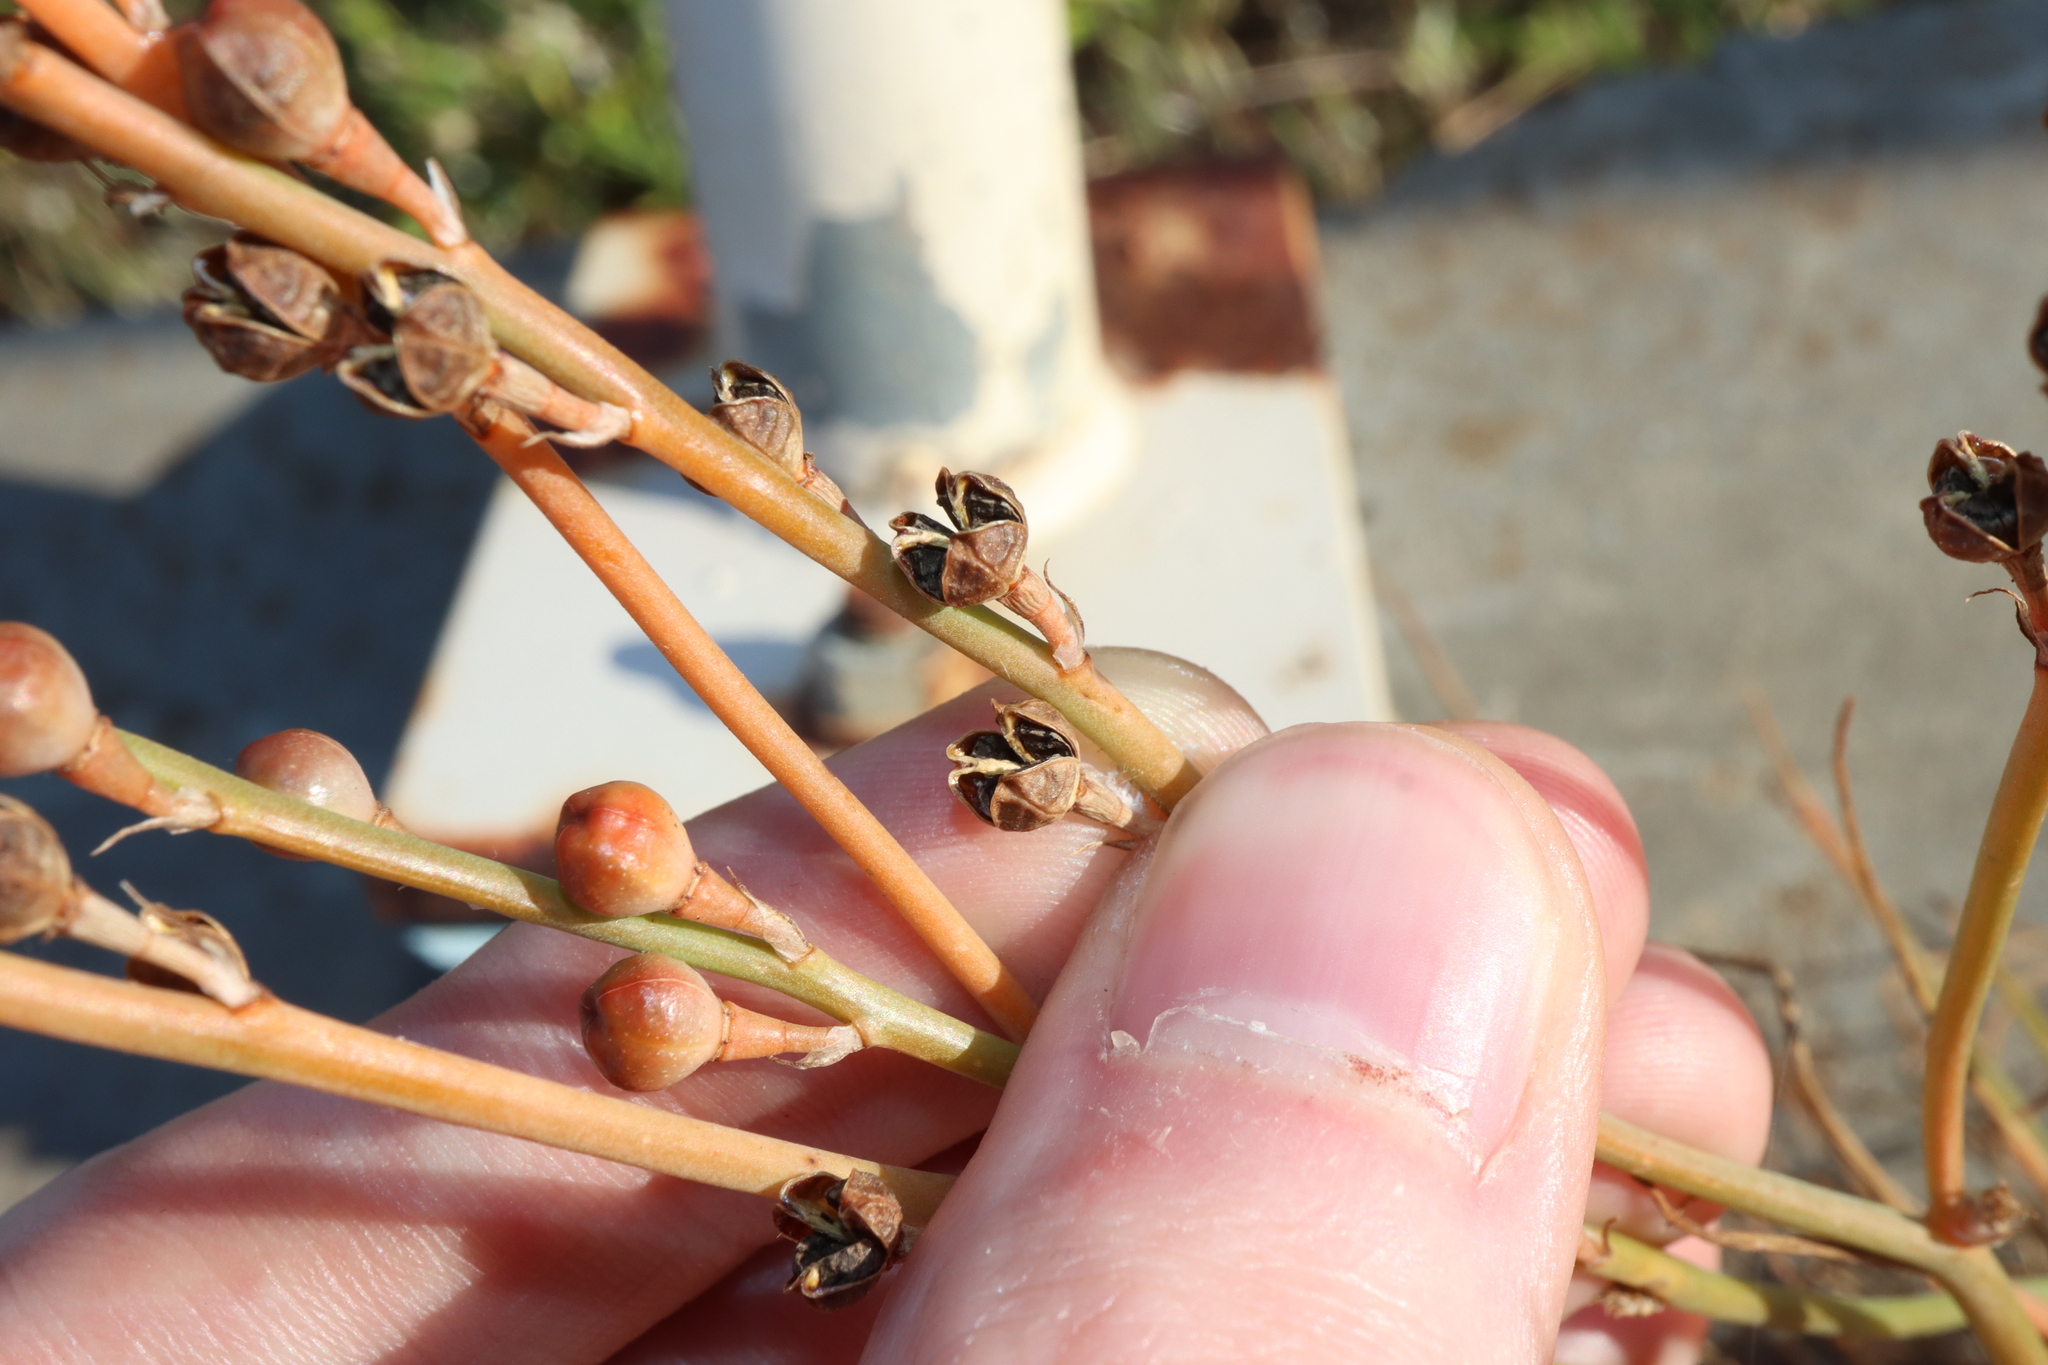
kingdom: Plantae
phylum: Tracheophyta
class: Liliopsida
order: Asparagales
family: Asphodelaceae
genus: Asphodelus
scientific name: Asphodelus fistulosus
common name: Onionweed
